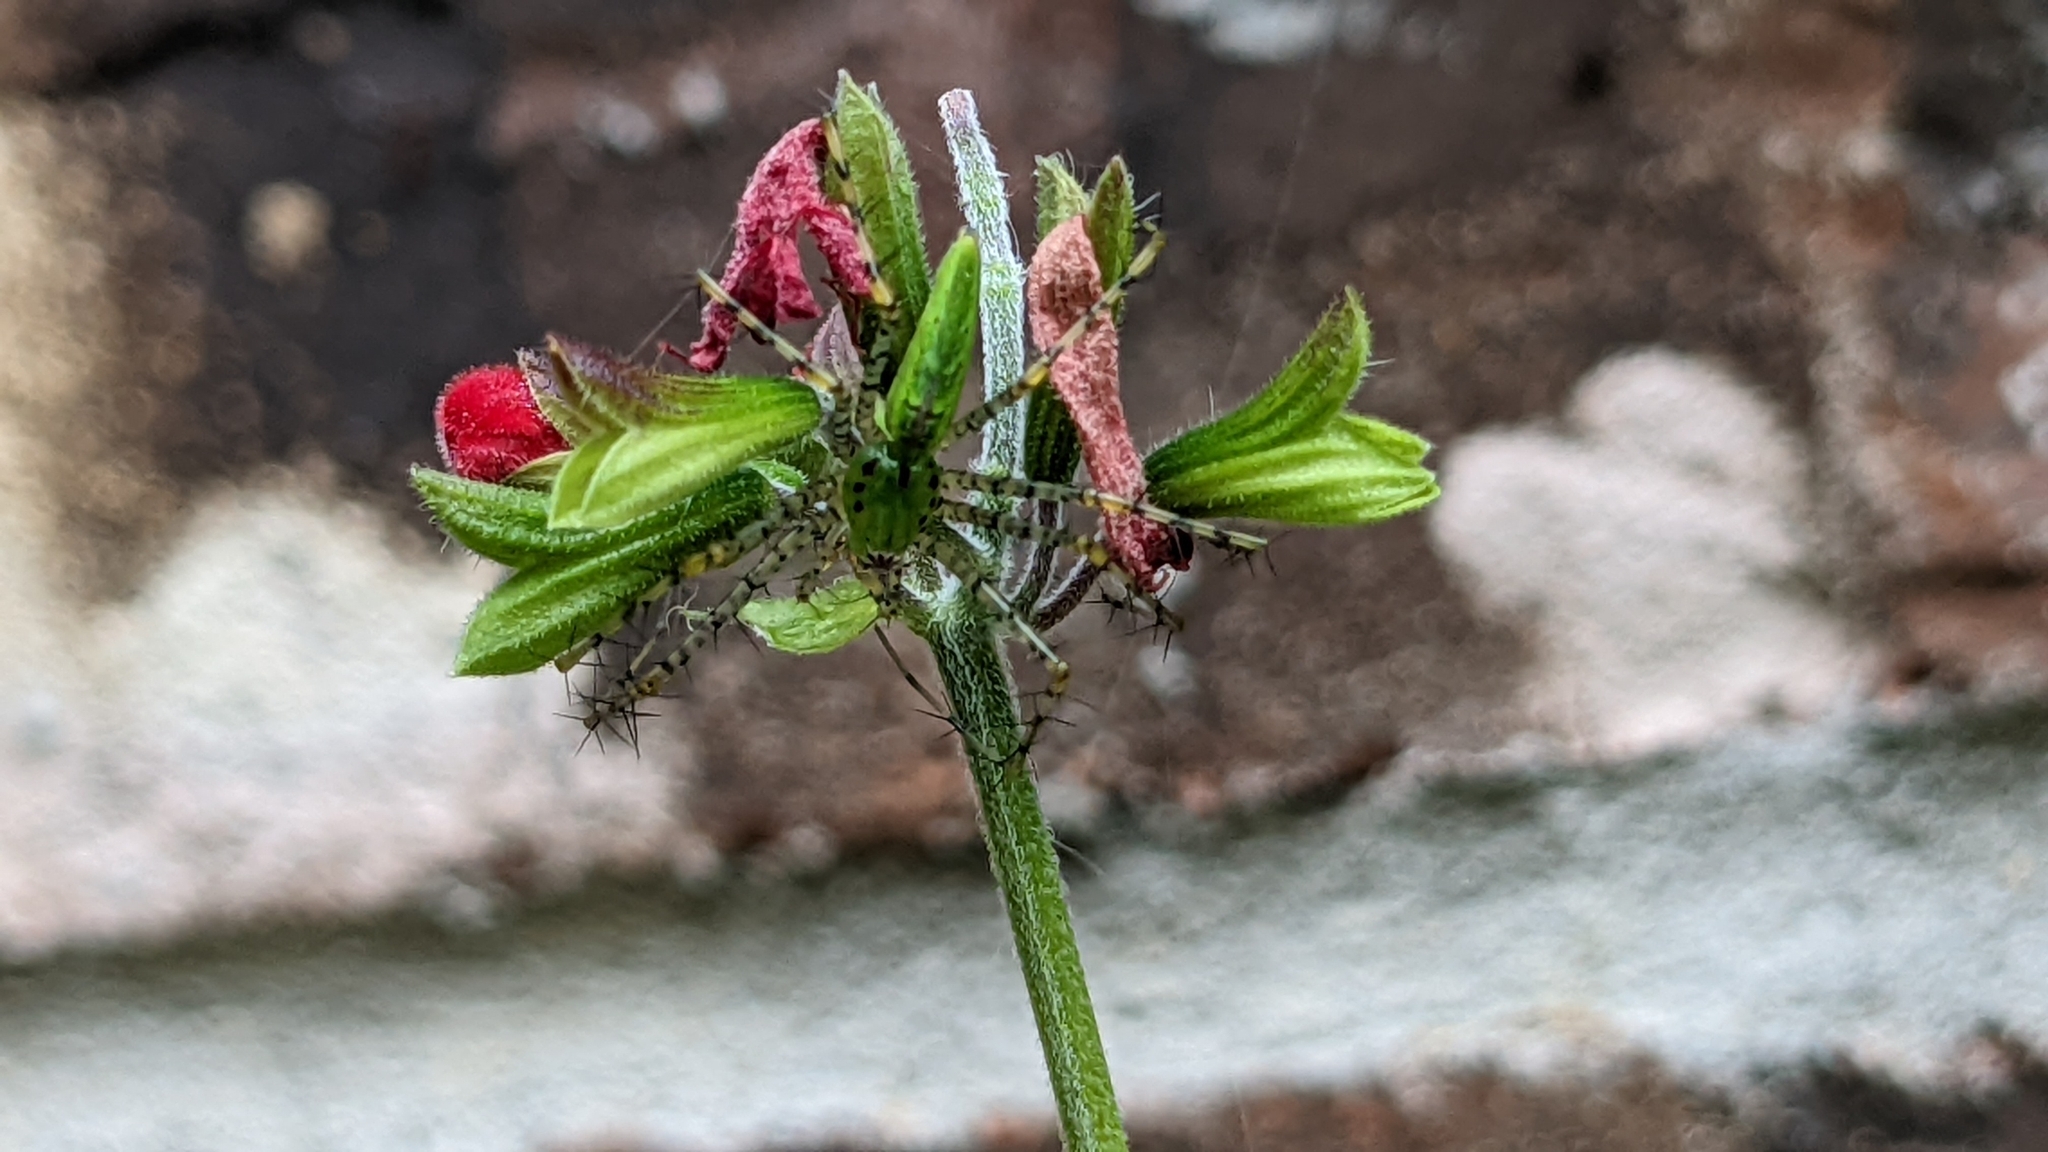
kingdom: Animalia
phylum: Arthropoda
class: Arachnida
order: Araneae
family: Oxyopidae
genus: Peucetia
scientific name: Peucetia viridans
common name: Lynx spiders
